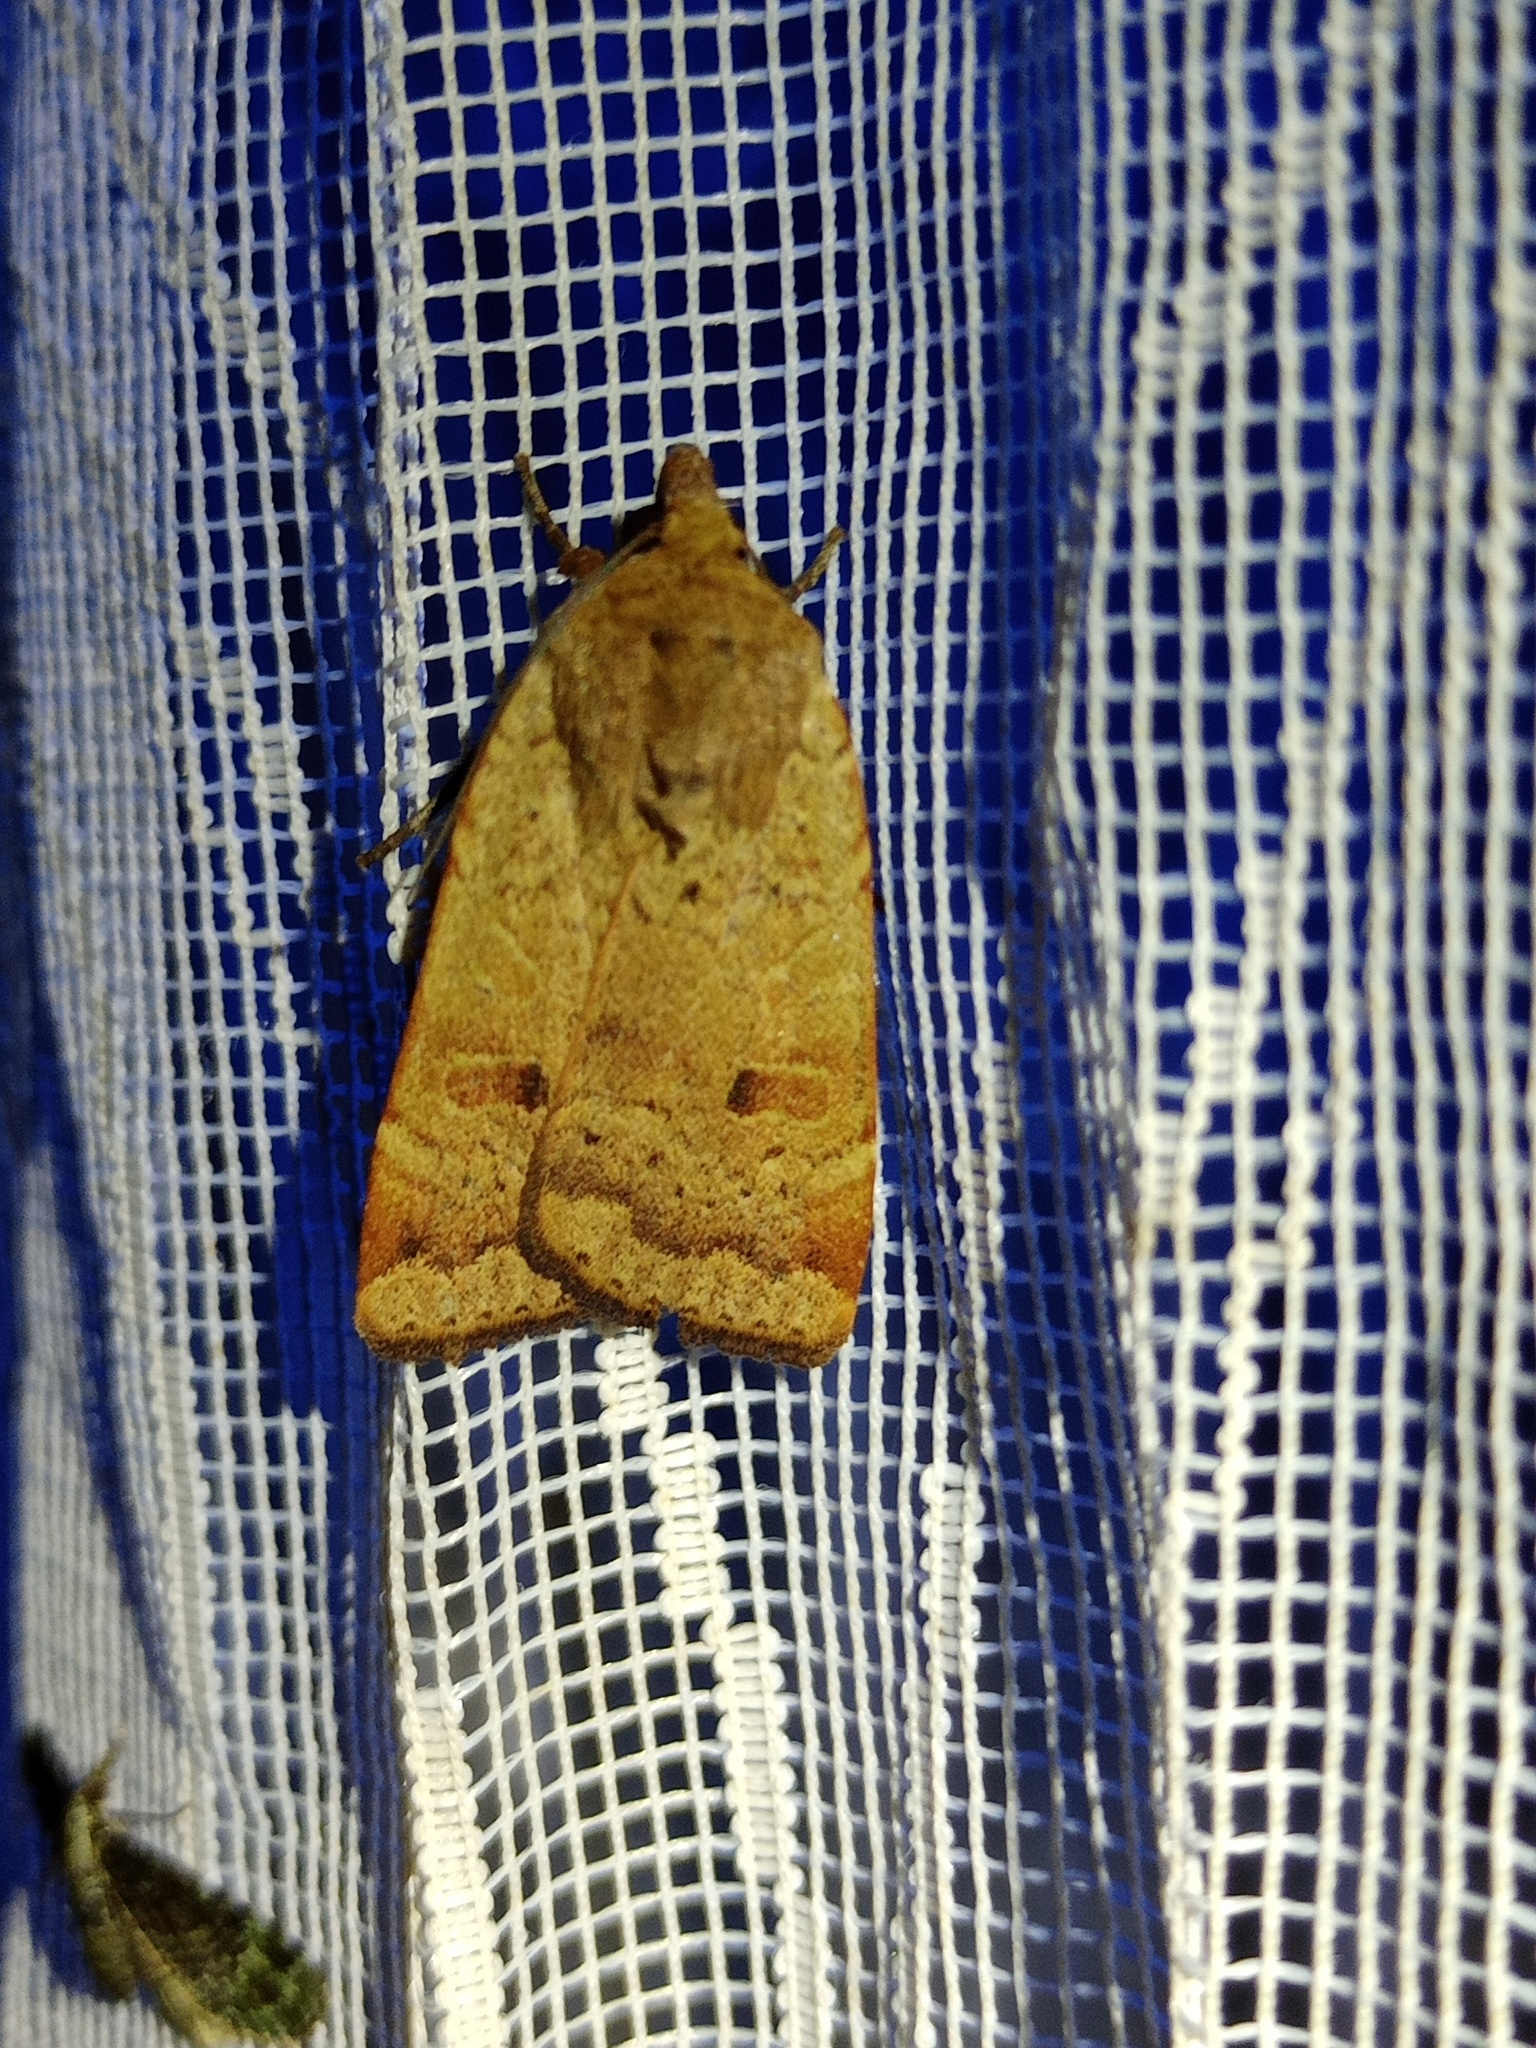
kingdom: Animalia
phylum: Arthropoda
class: Insecta
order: Lepidoptera
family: Noctuidae
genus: Noctua
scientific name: Noctua comes
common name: Lesser yellow underwing
